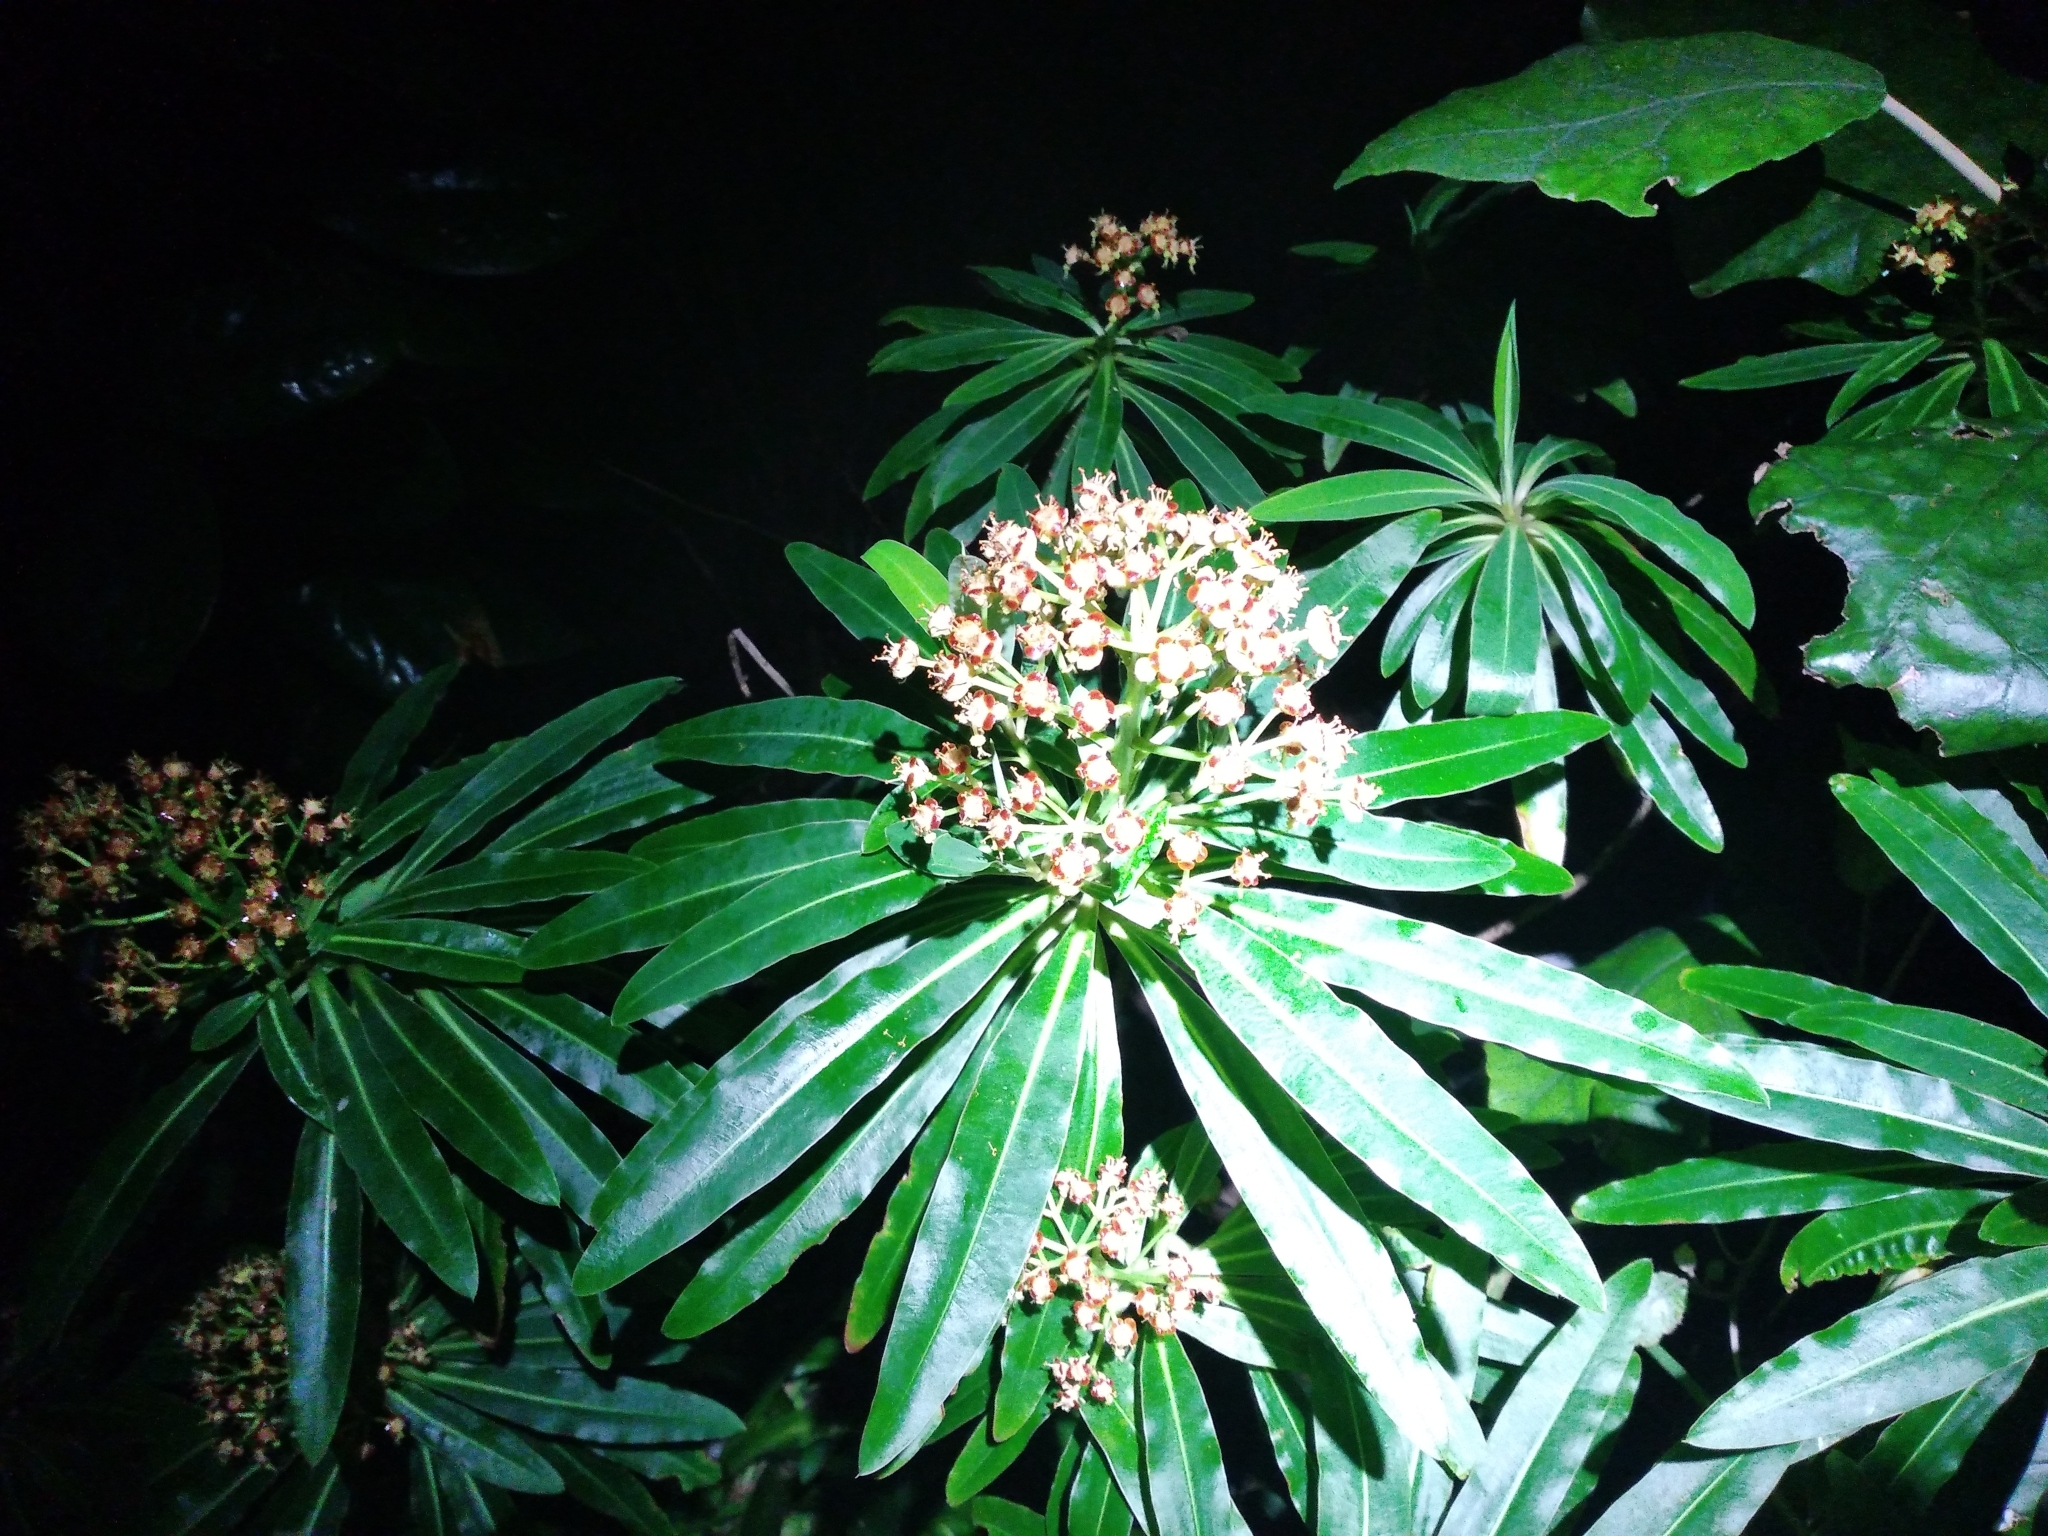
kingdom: Plantae
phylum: Tracheophyta
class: Magnoliopsida
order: Malpighiales
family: Euphorbiaceae
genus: Euphorbia
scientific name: Euphorbia mellifera
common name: Canary spurge
